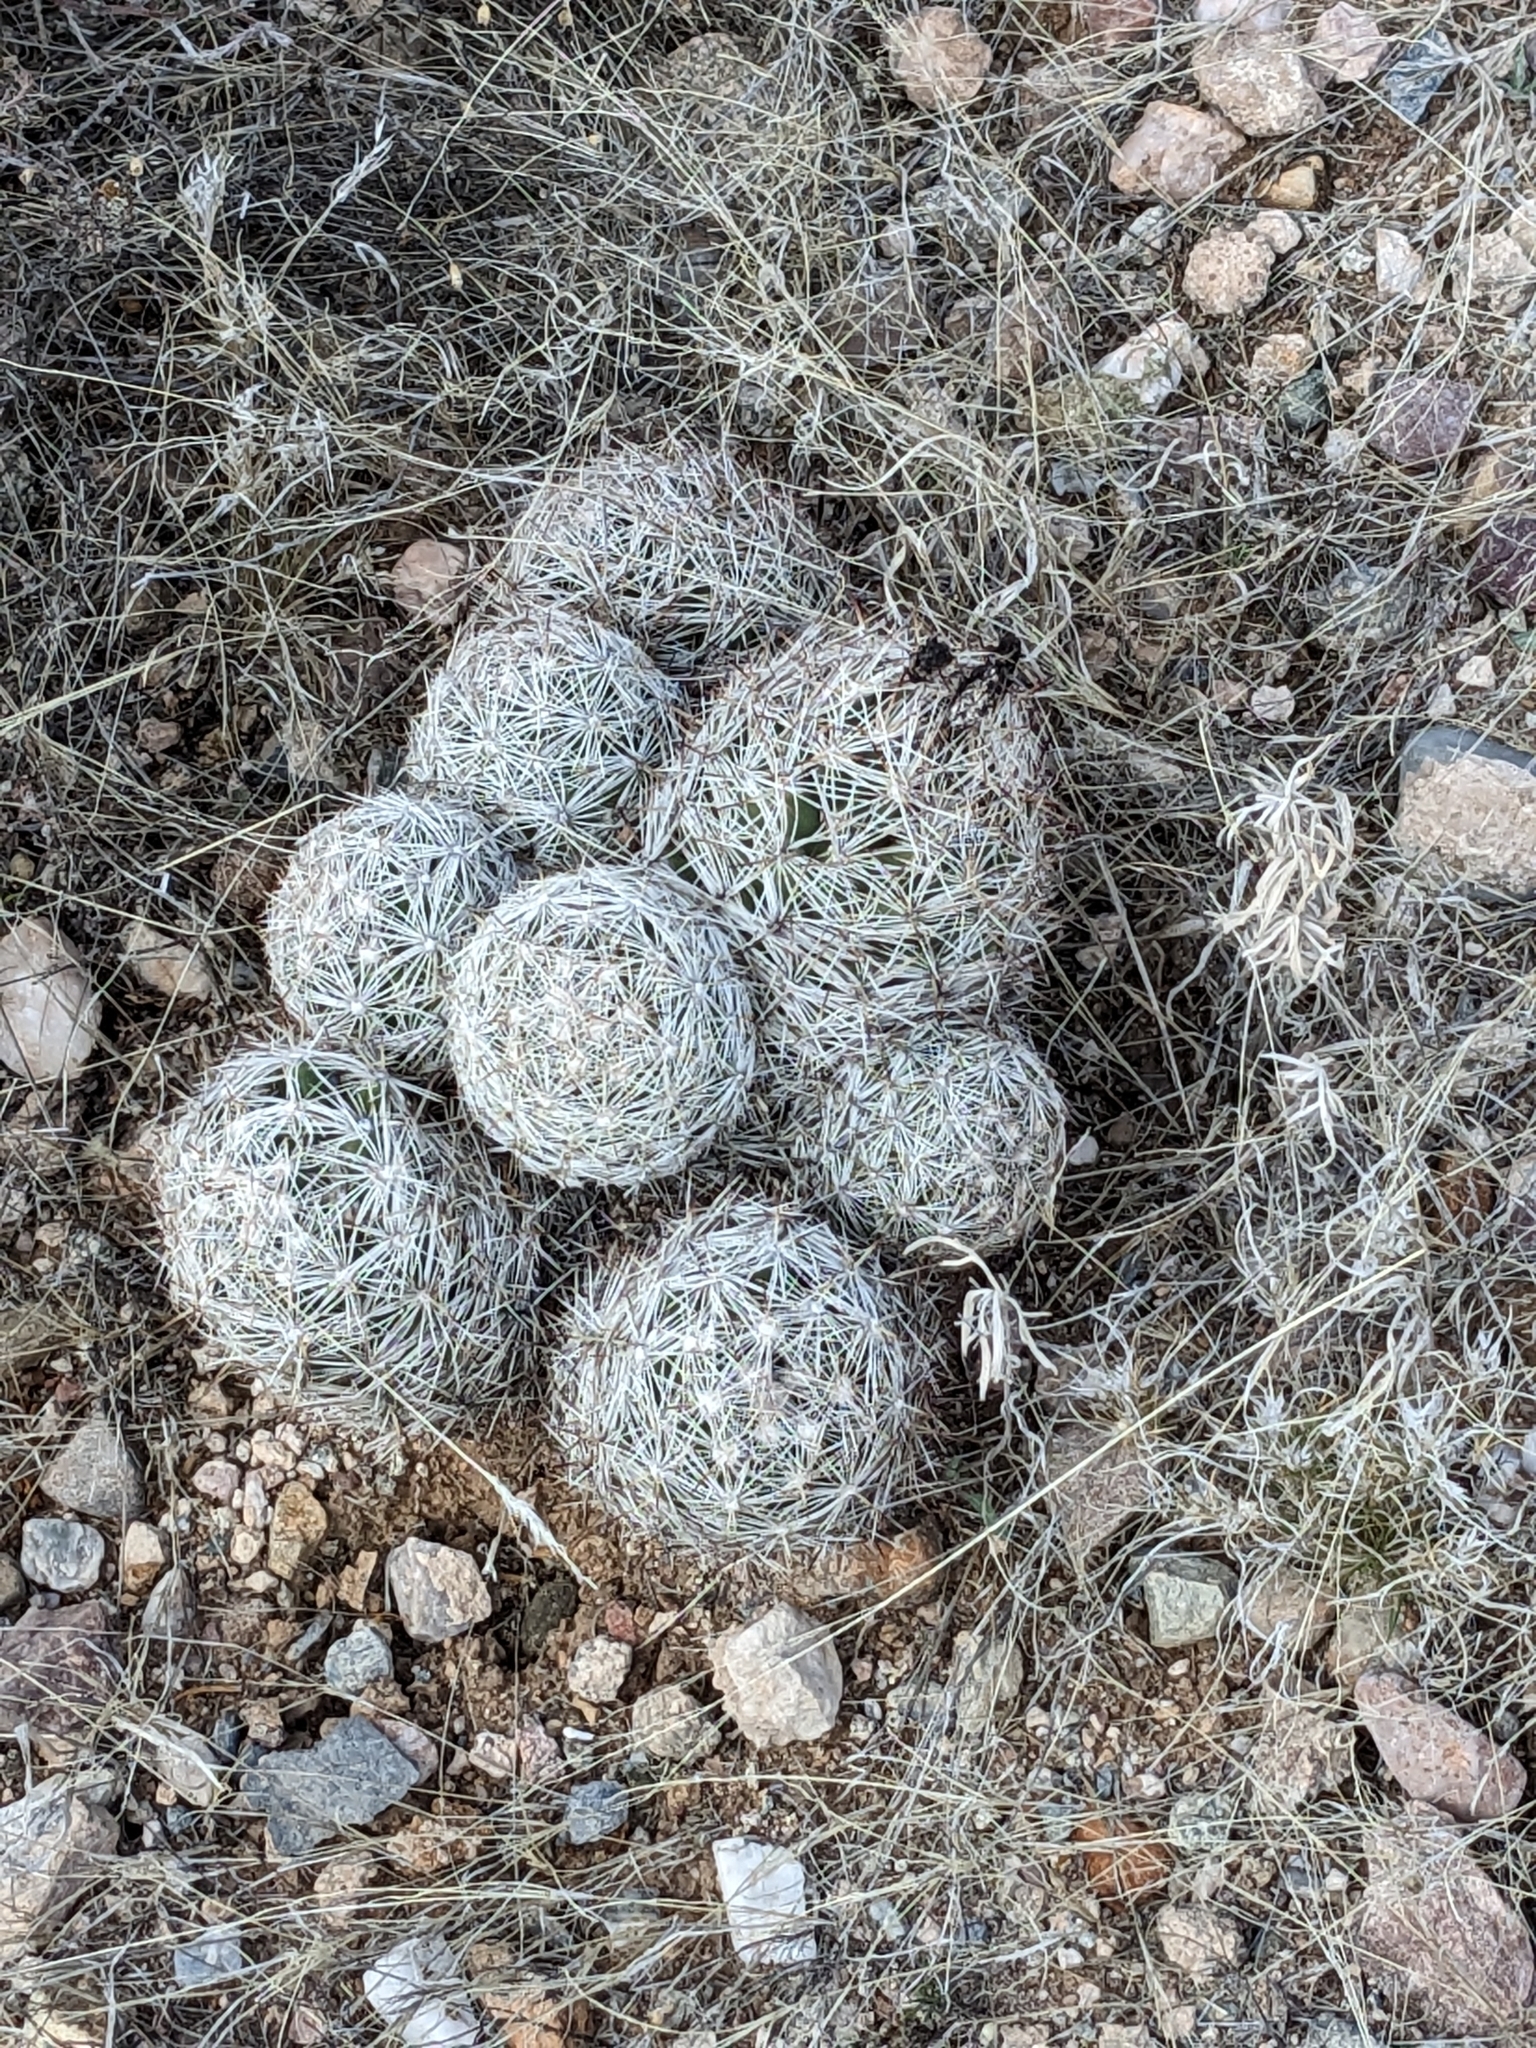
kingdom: Plantae
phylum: Tracheophyta
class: Magnoliopsida
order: Caryophyllales
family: Cactaceae
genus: Cochemiea
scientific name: Cochemiea grahamii
